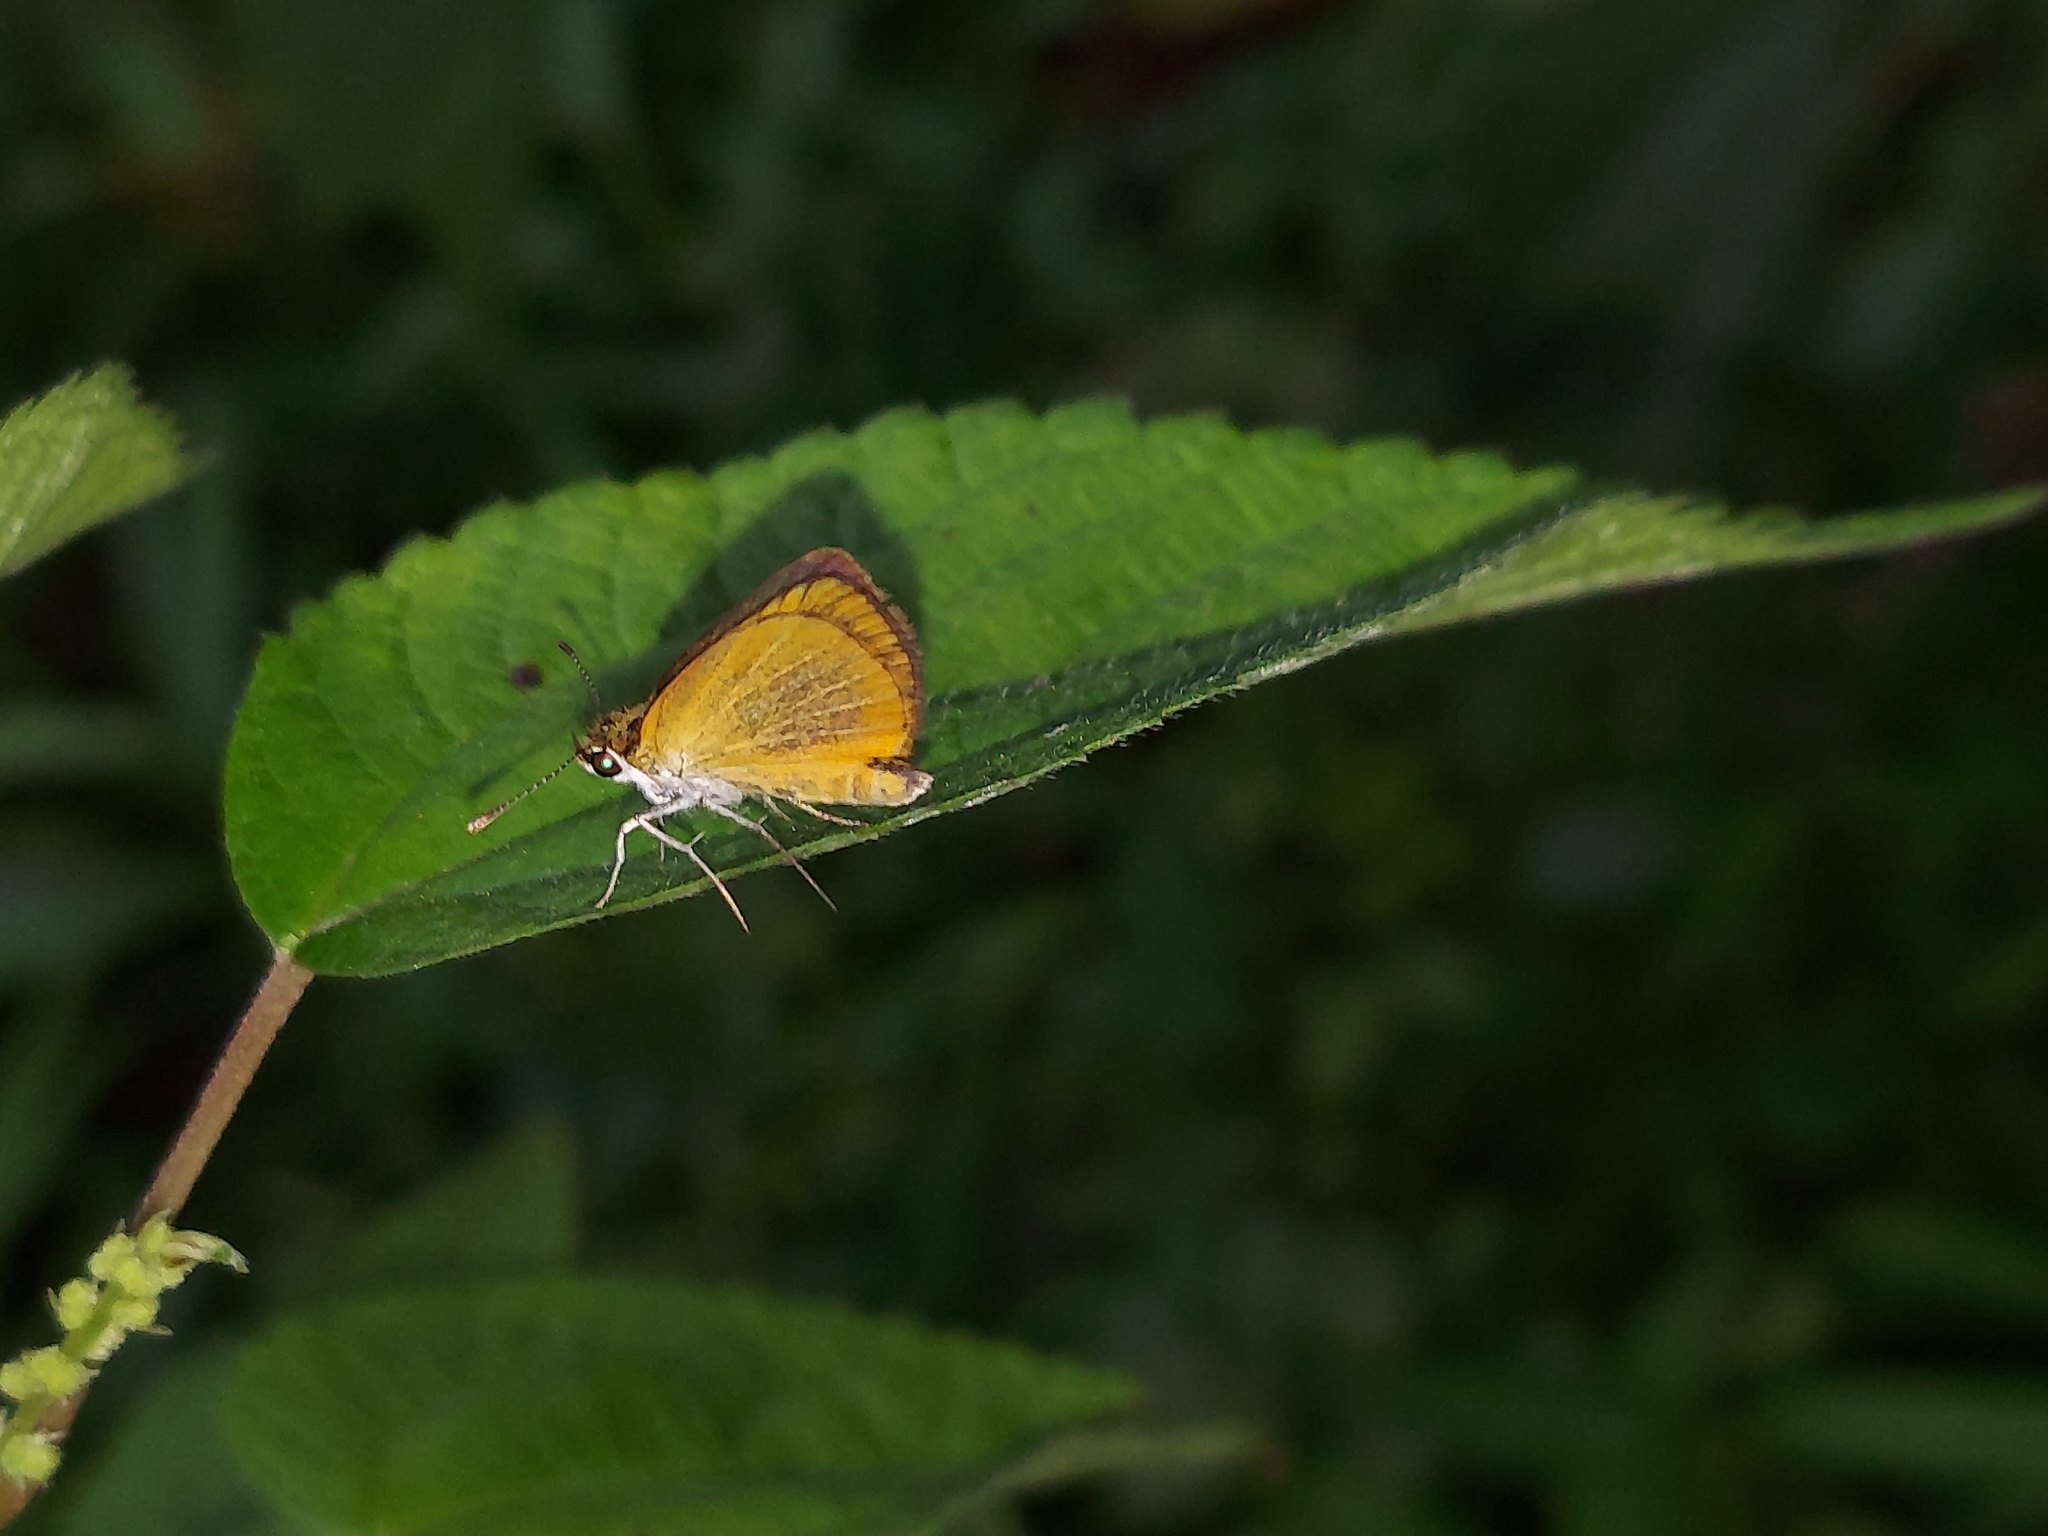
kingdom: Animalia
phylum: Arthropoda
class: Insecta
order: Lepidoptera
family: Hesperiidae
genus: Ancyloxypha
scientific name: Ancyloxypha numitor
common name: Least skipper
